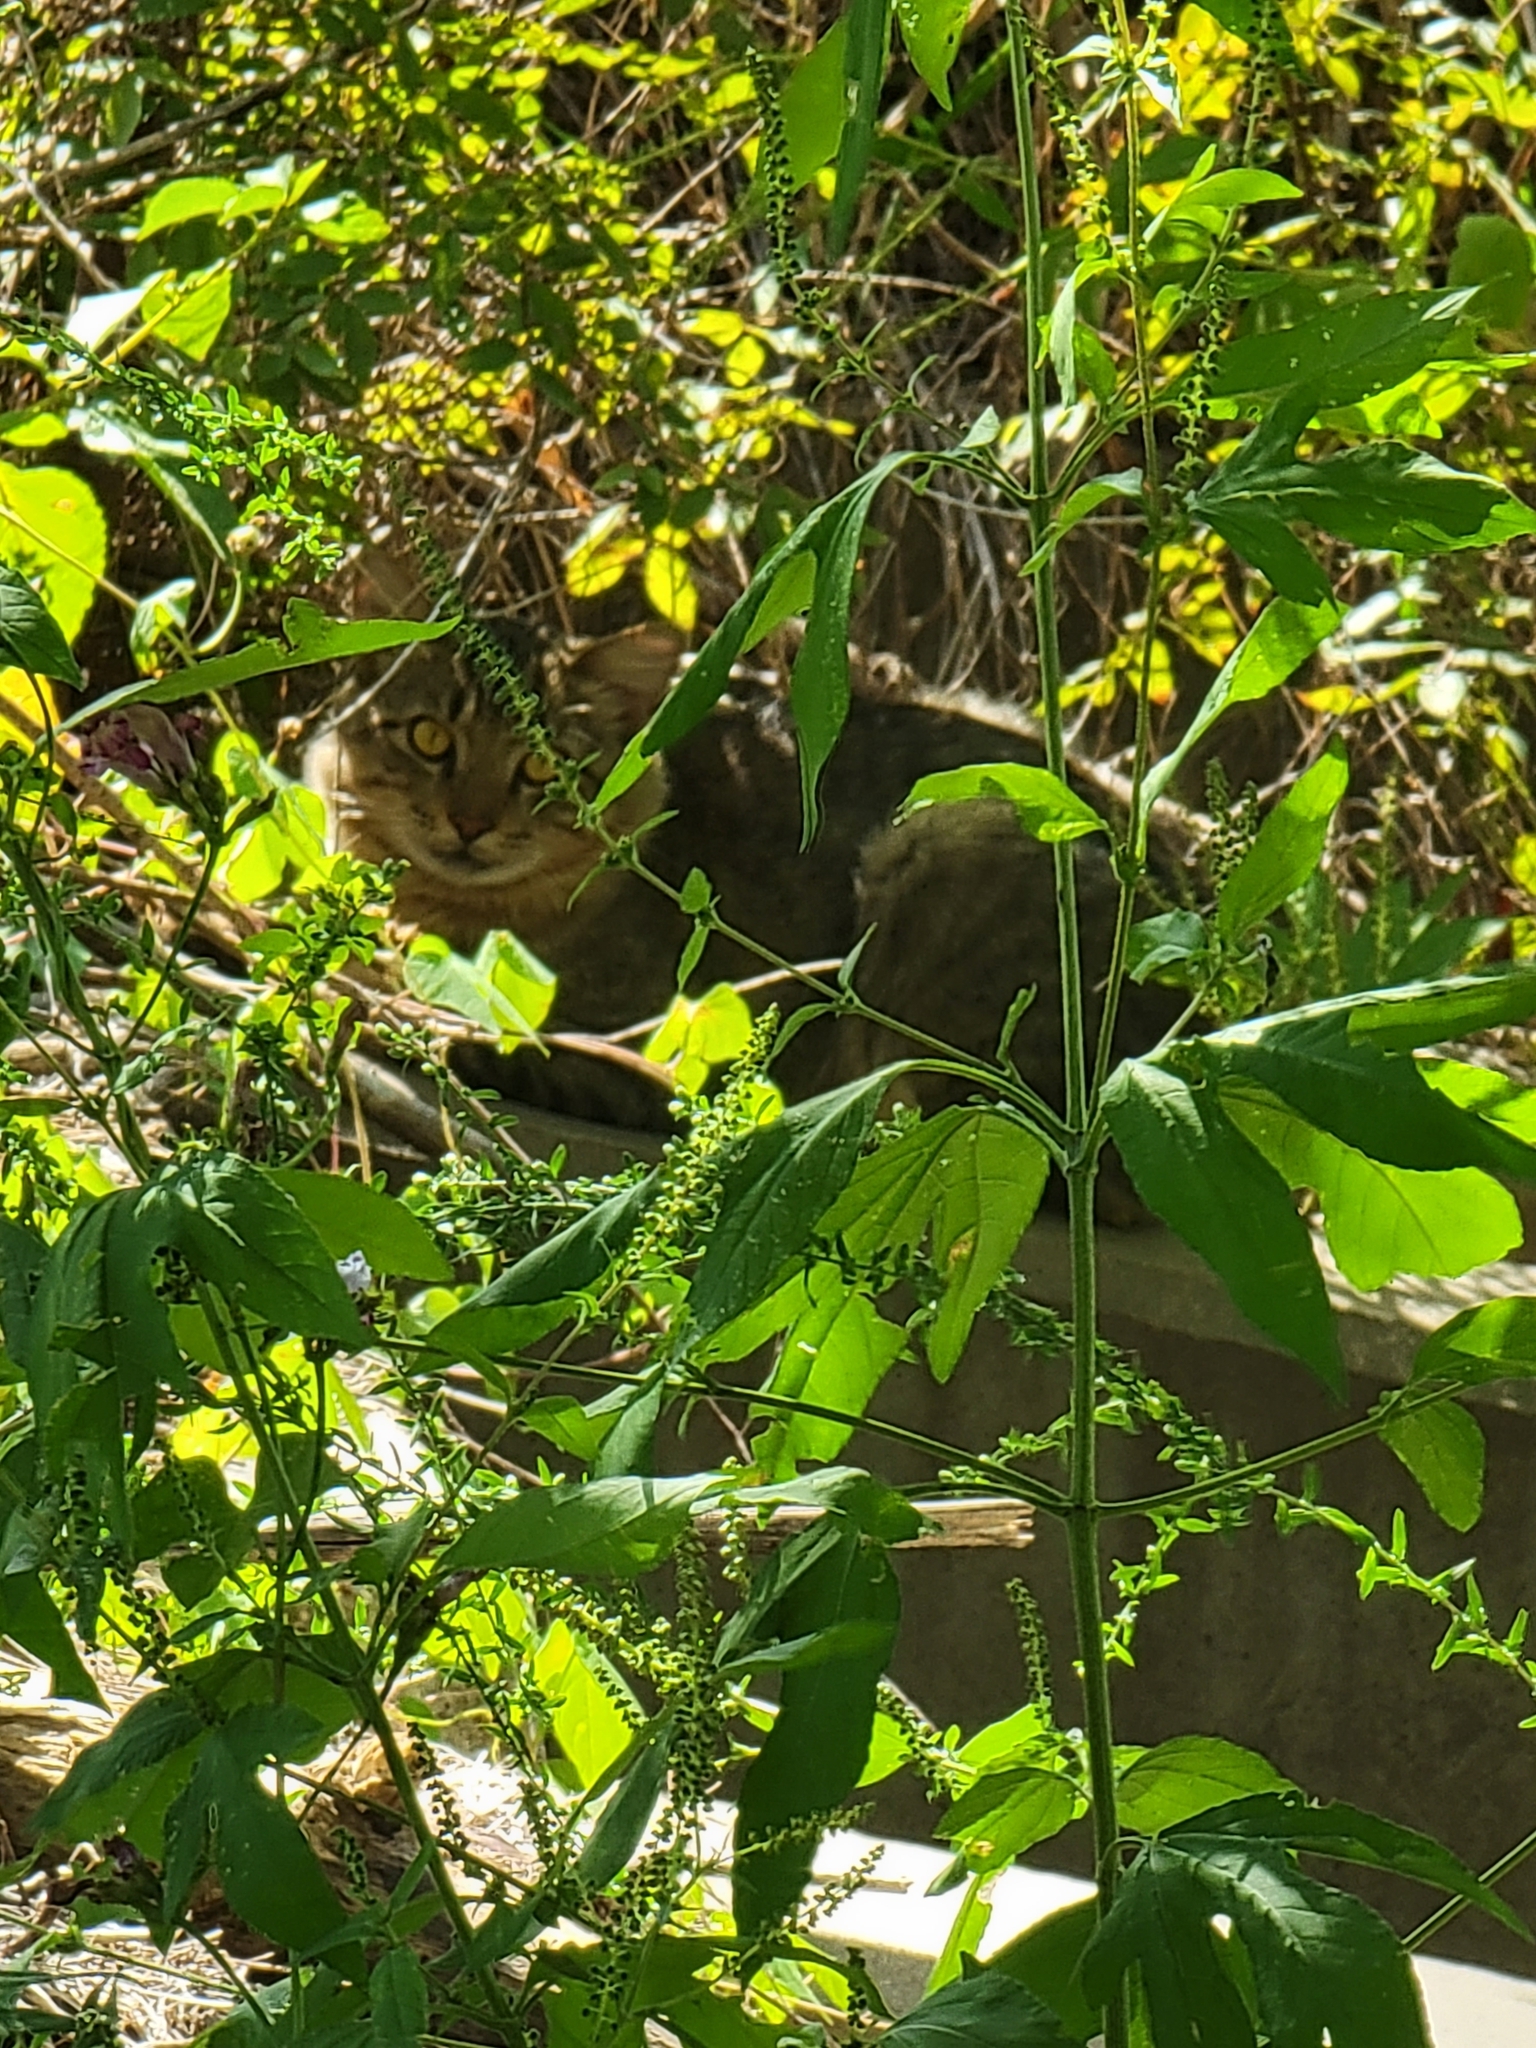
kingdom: Animalia
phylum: Chordata
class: Mammalia
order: Carnivora
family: Felidae
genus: Felis
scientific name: Felis catus
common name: Domestic cat
